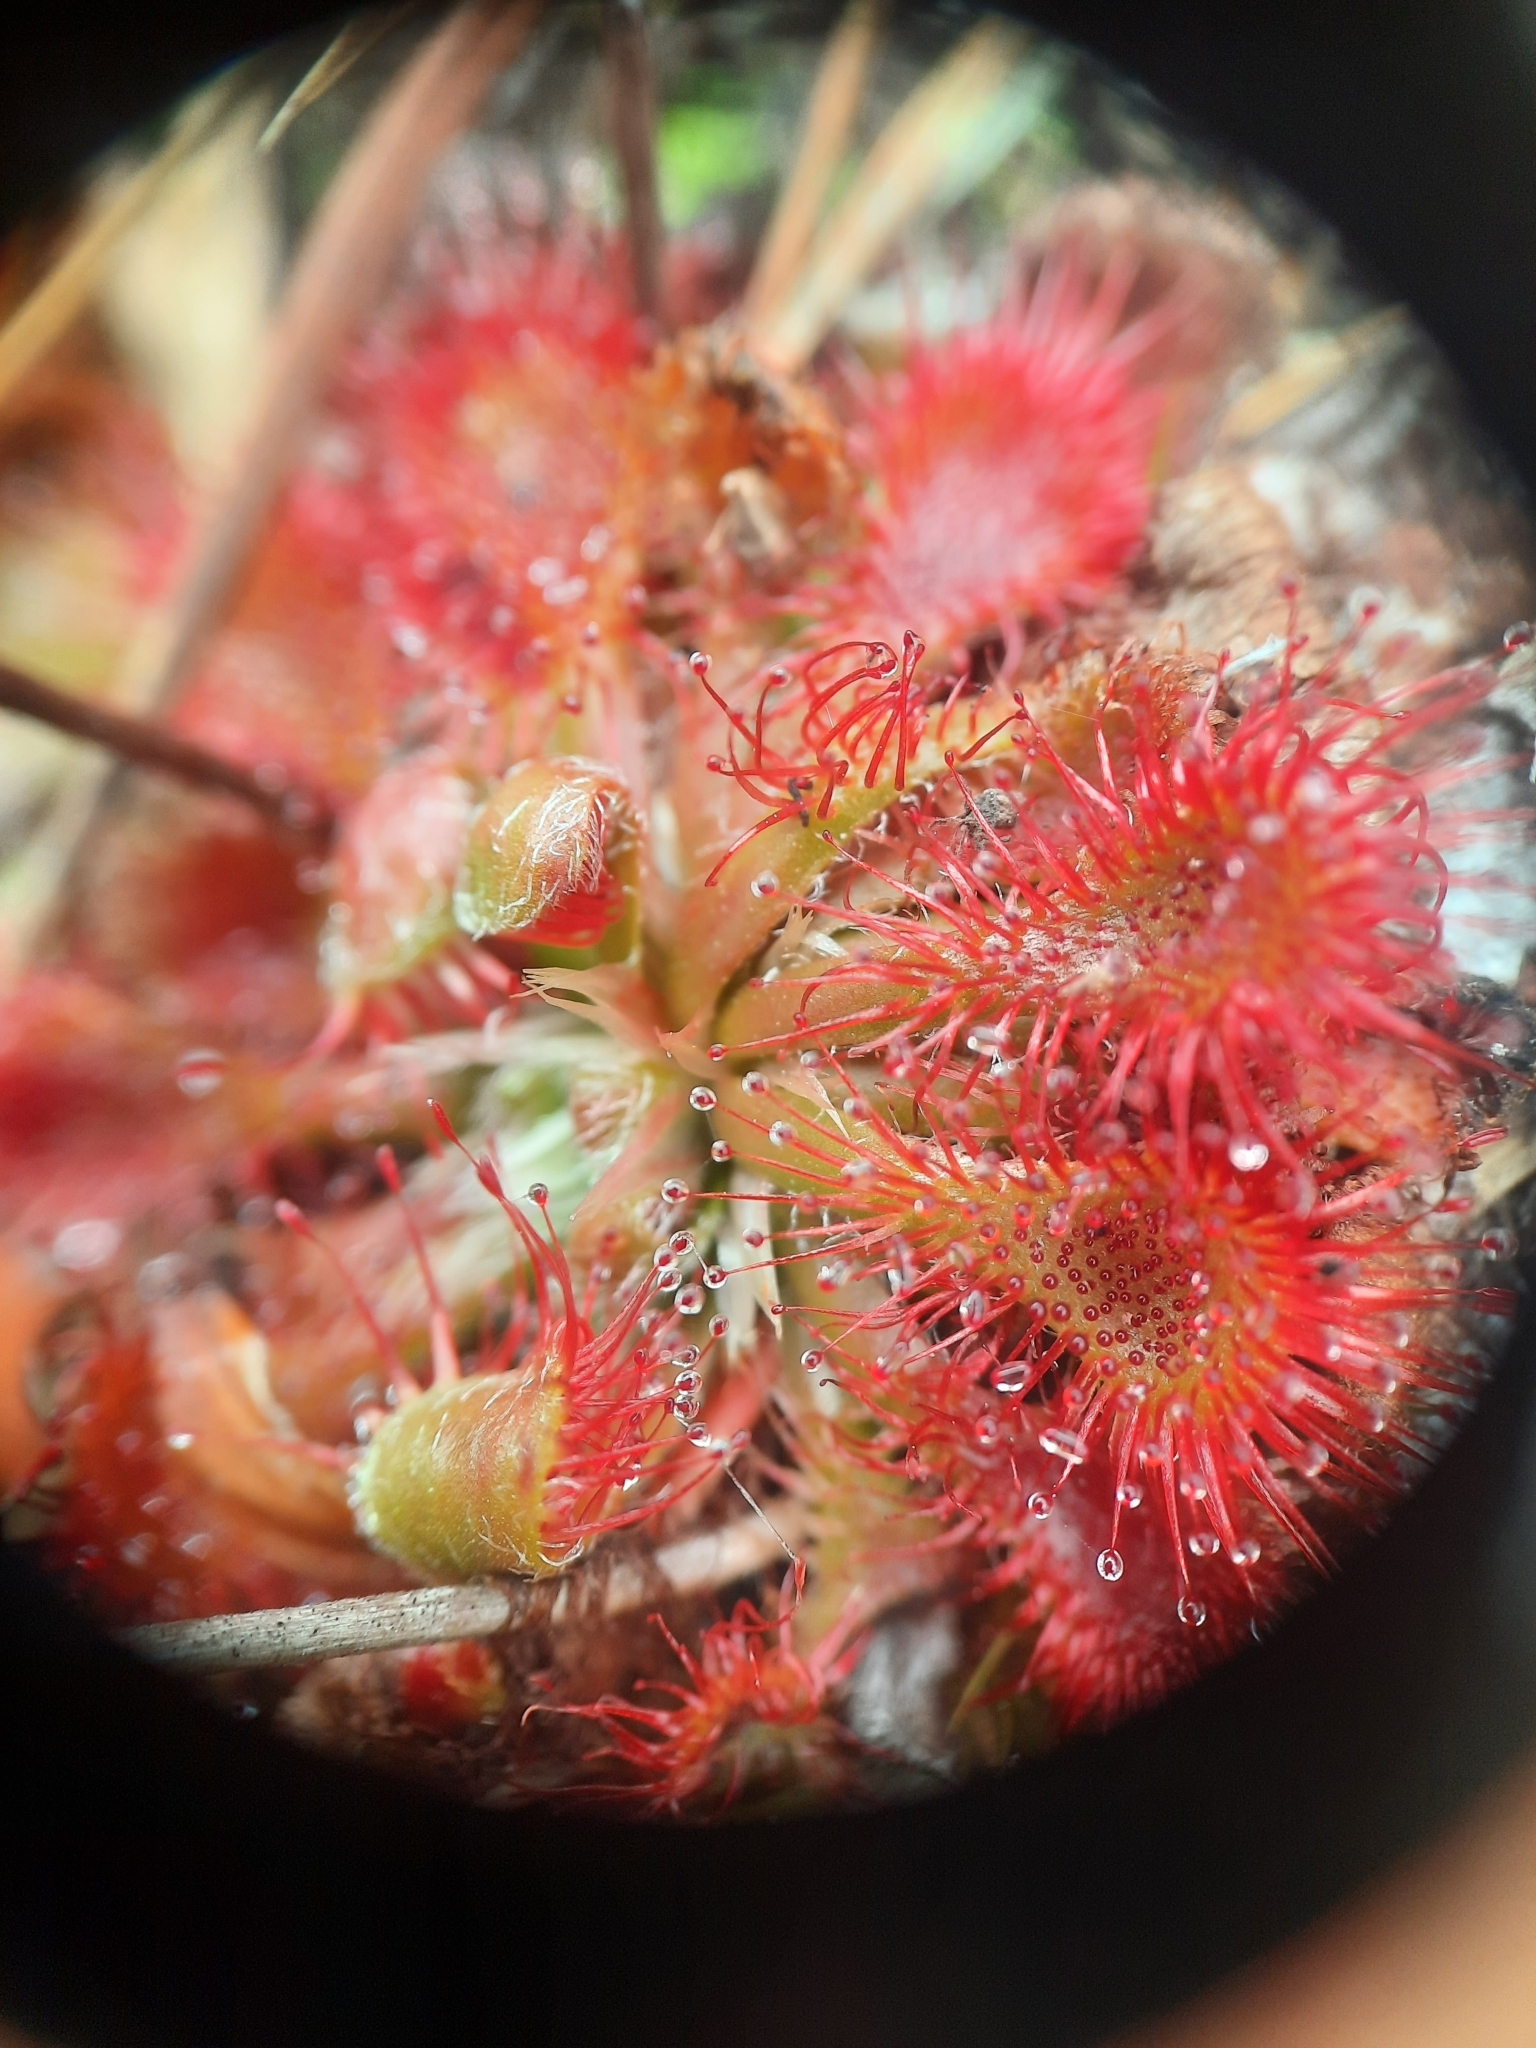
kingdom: Plantae
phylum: Tracheophyta
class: Magnoliopsida
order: Caryophyllales
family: Droseraceae
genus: Drosera
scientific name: Drosera spatulata
